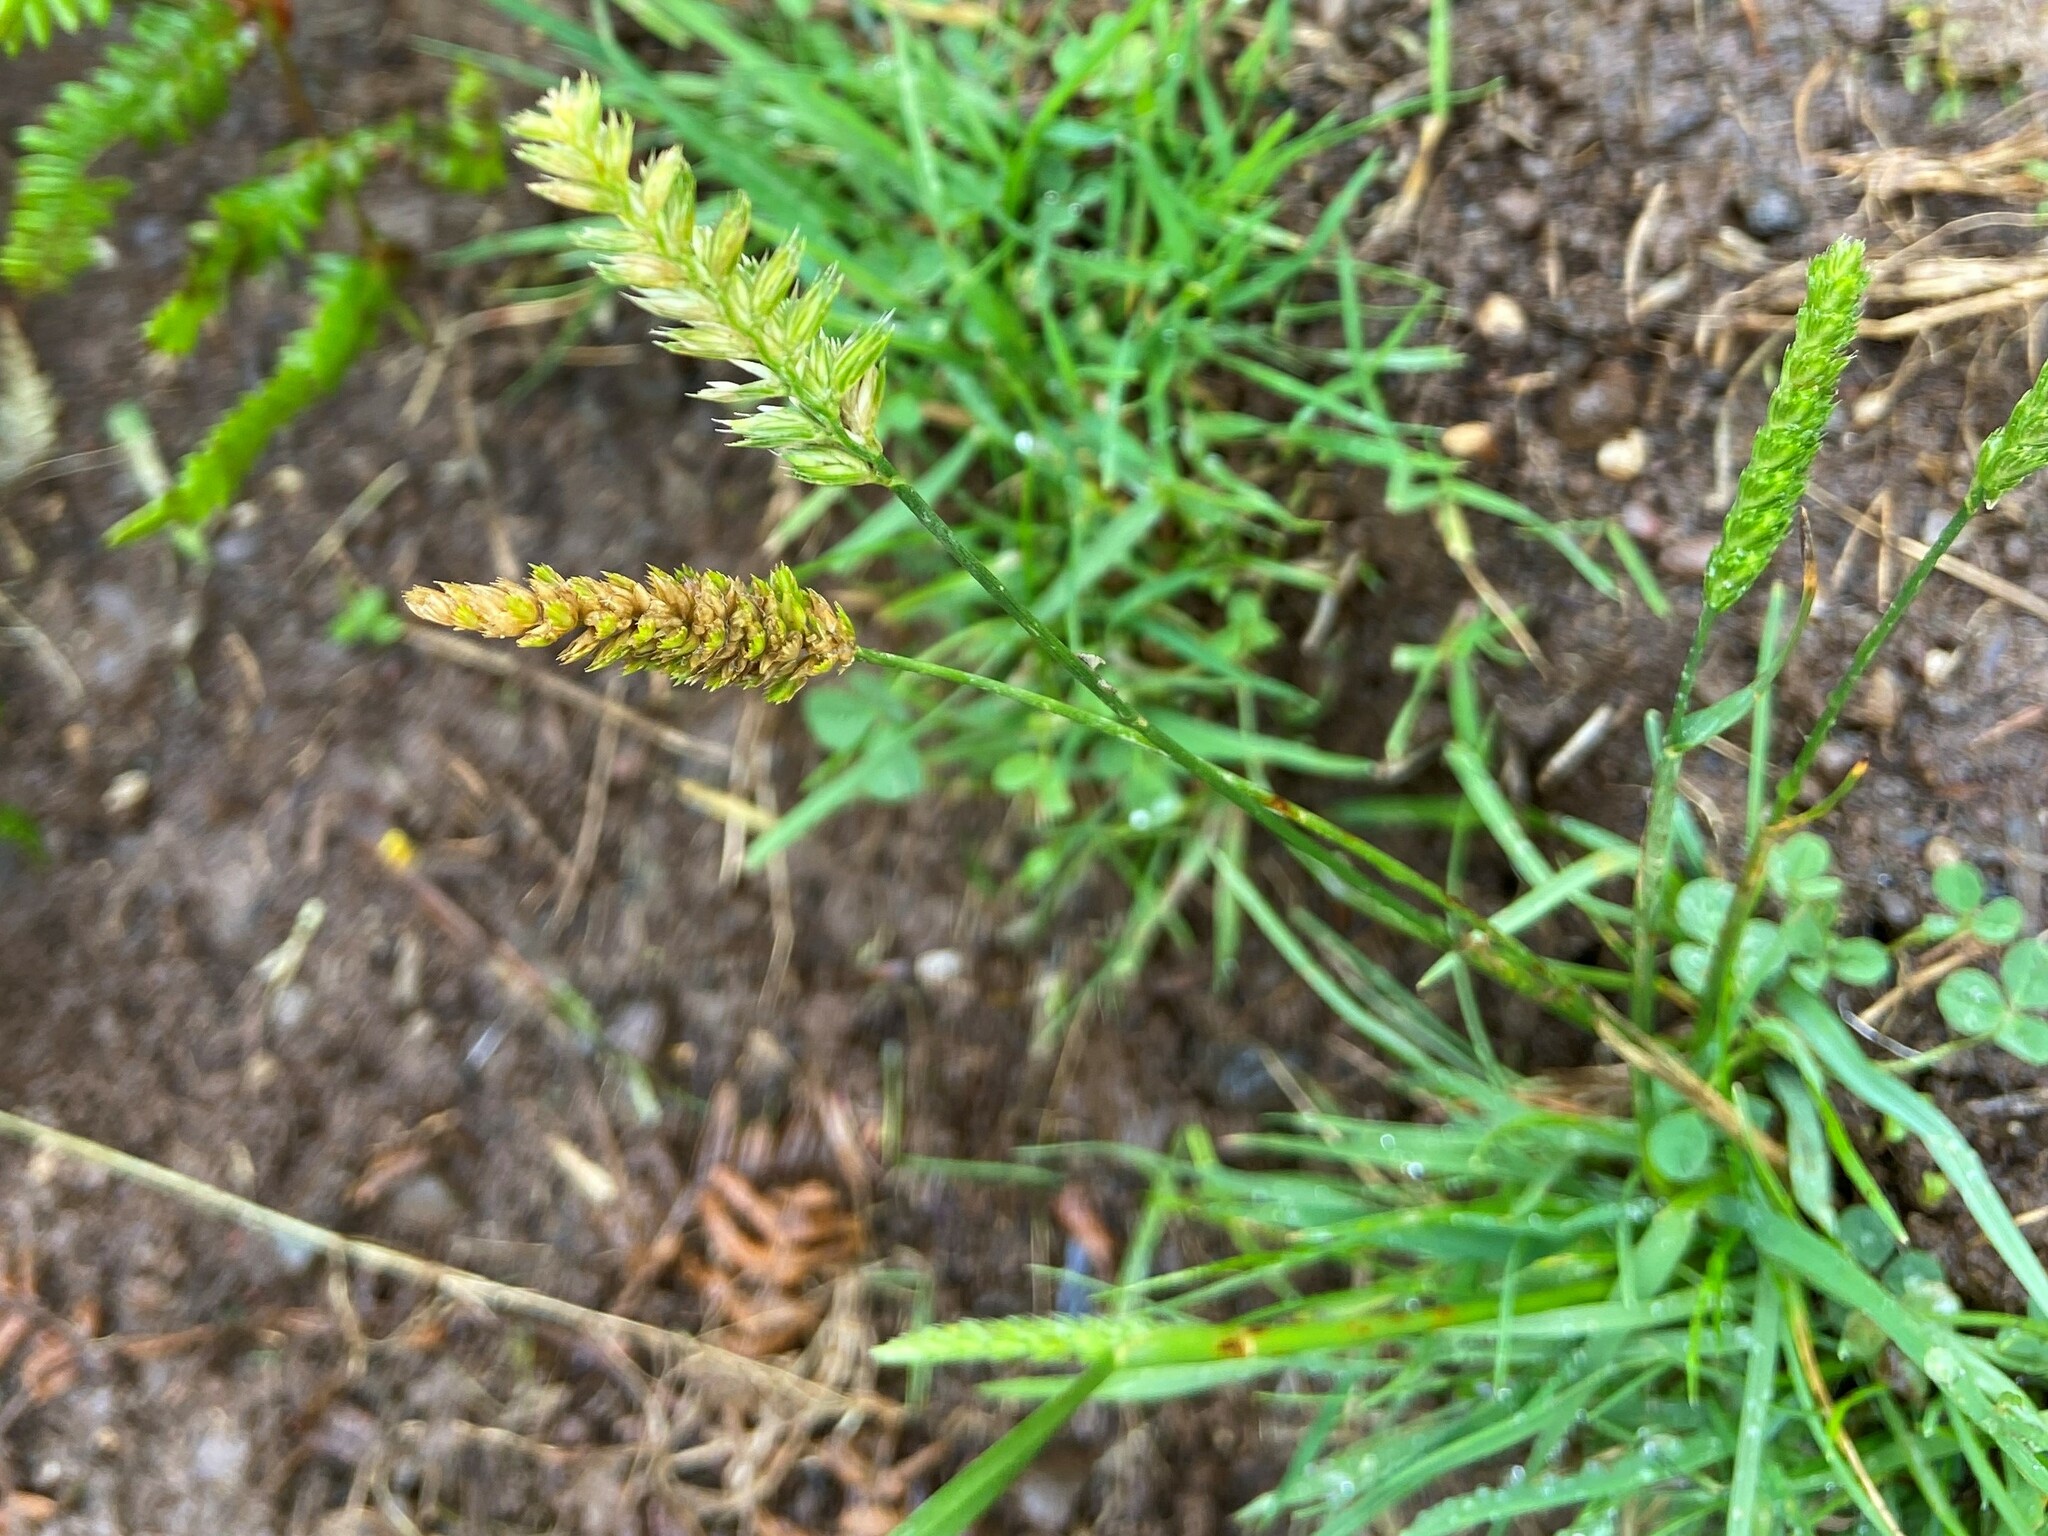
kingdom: Plantae
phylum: Tracheophyta
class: Liliopsida
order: Poales
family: Poaceae
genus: Cynosurus
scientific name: Cynosurus cristatus
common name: Crested dog's-tail
